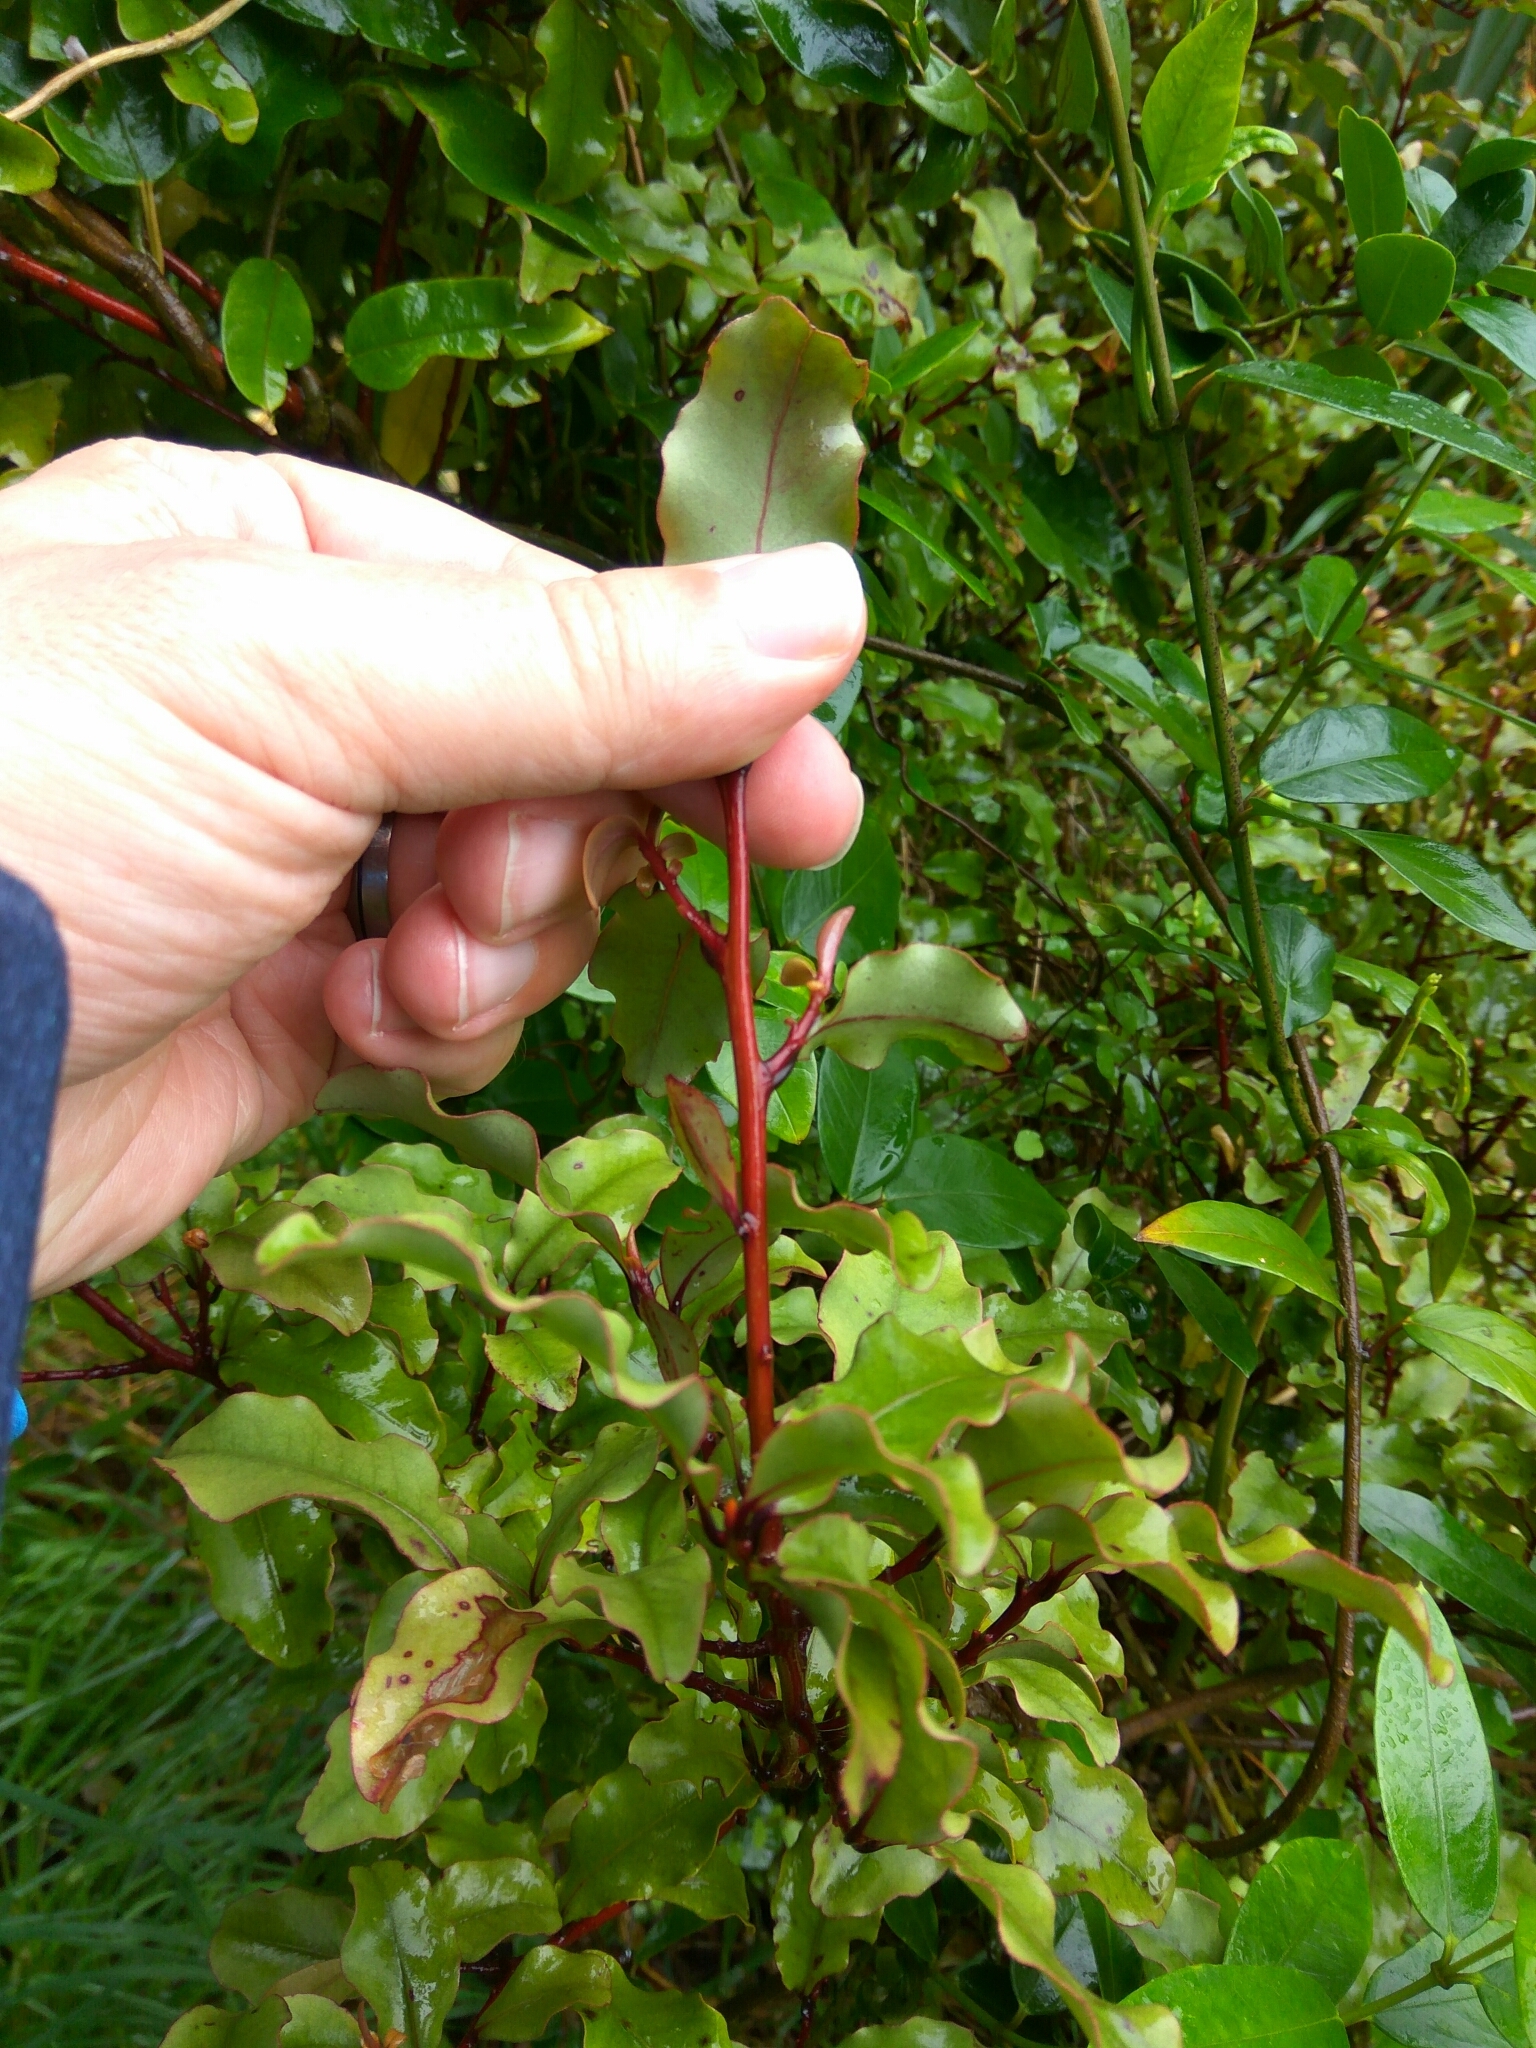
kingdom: Plantae
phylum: Tracheophyta
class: Magnoliopsida
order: Ericales
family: Primulaceae
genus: Myrsine
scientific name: Myrsine australis
